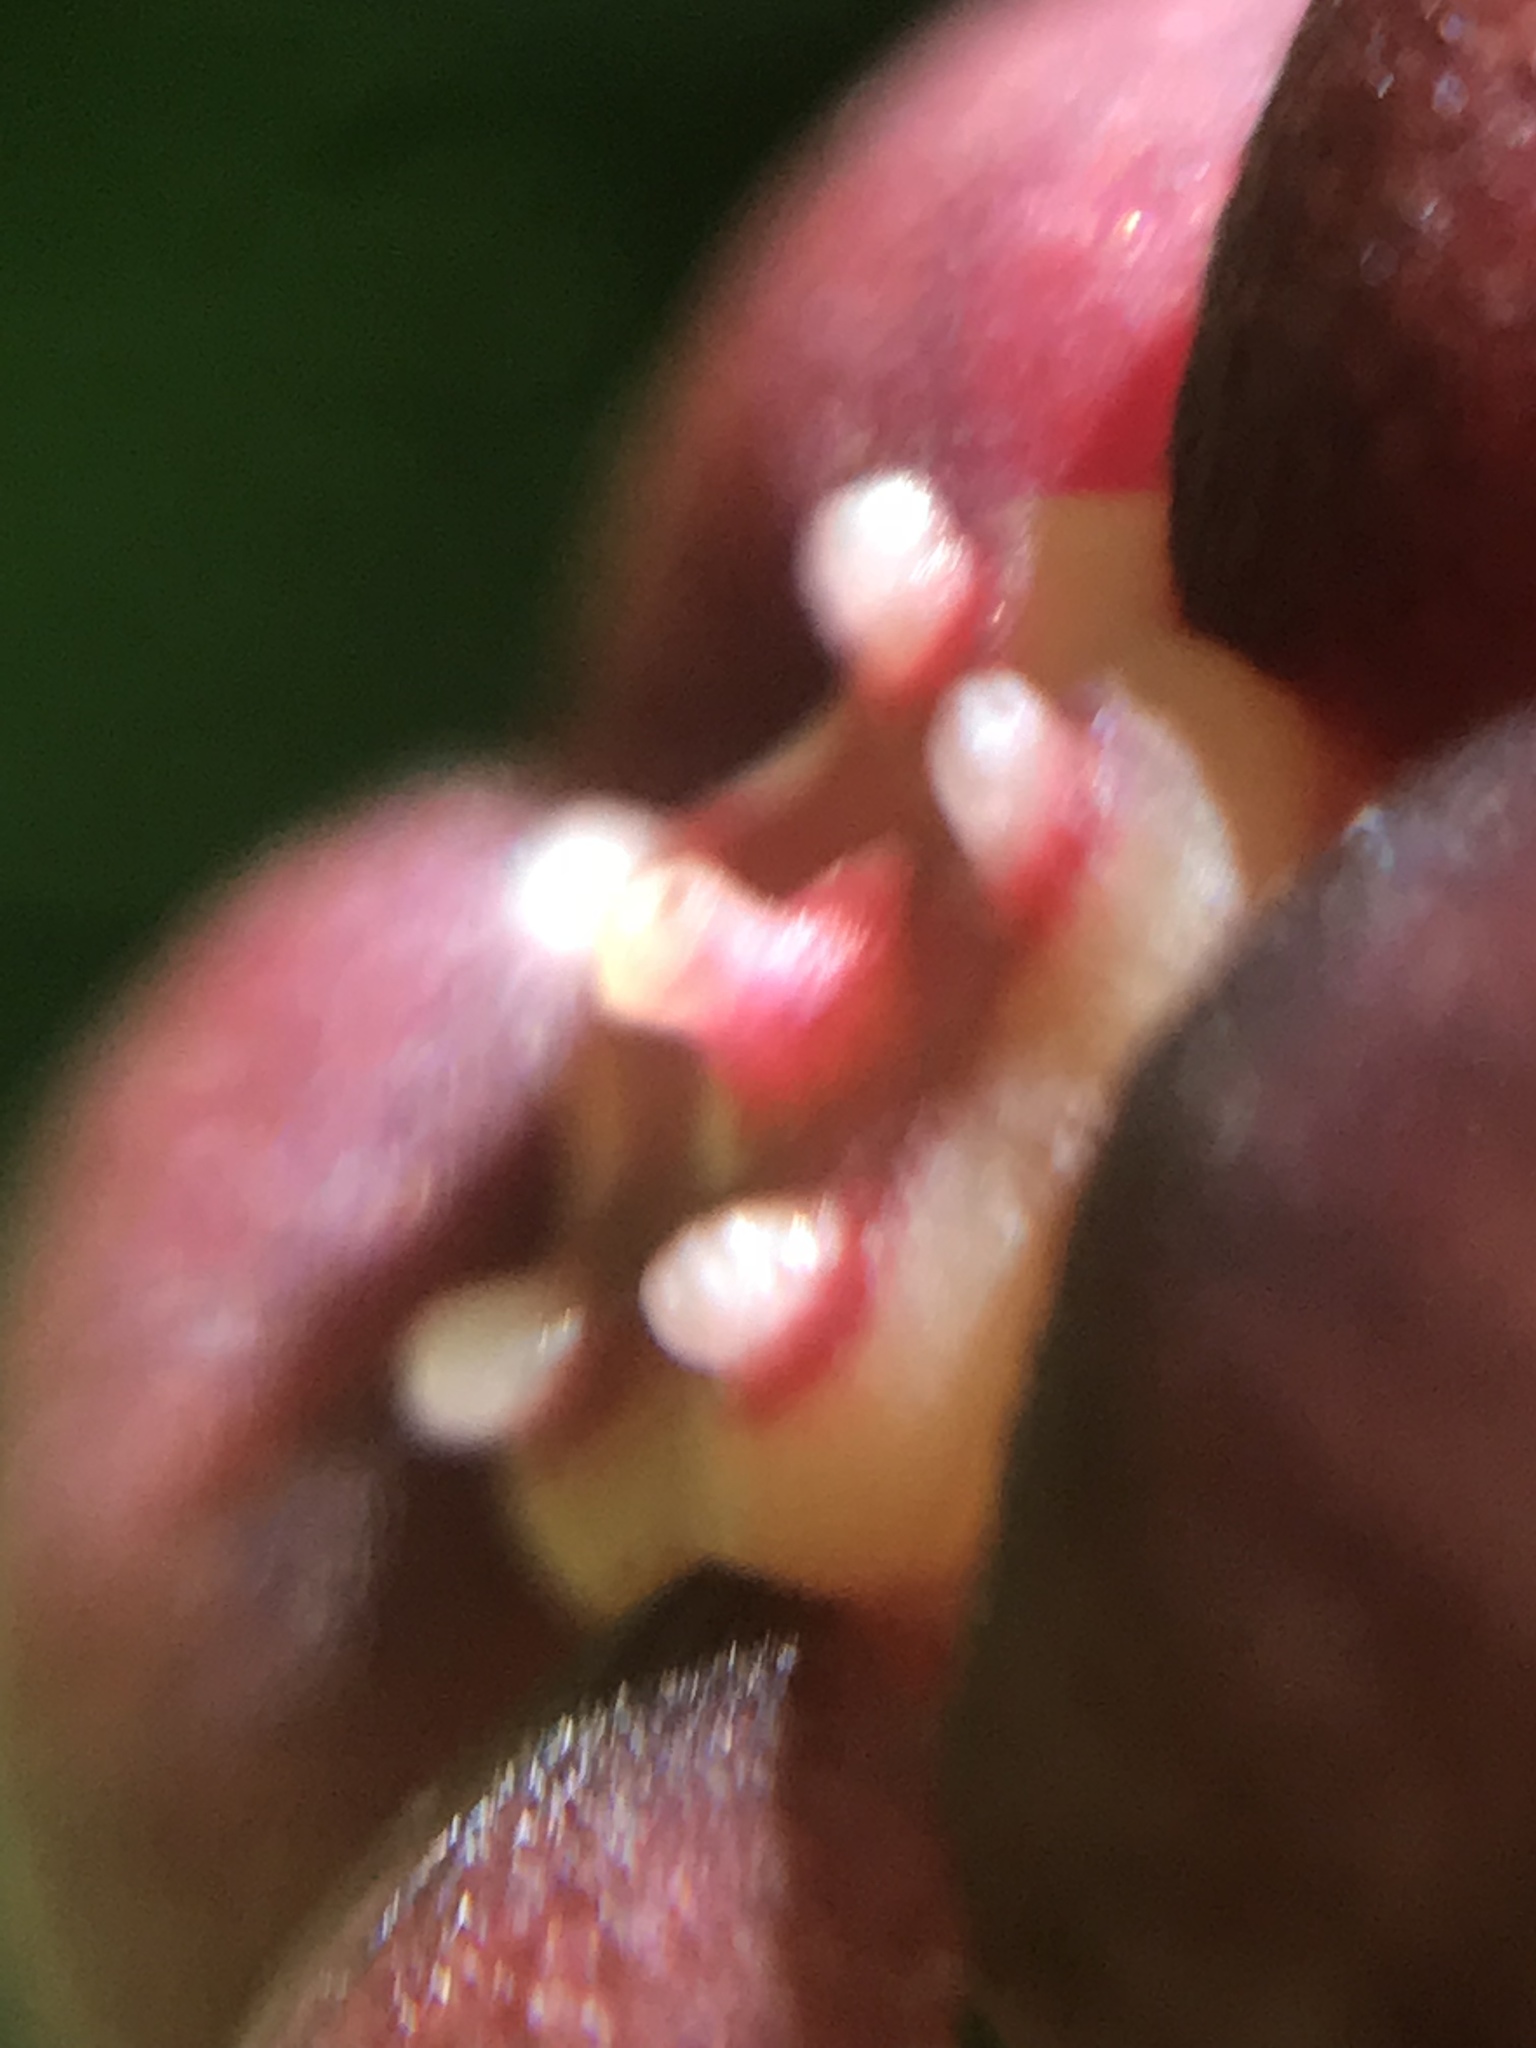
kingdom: Plantae
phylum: Tracheophyta
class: Magnoliopsida
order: Celastrales
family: Celastraceae
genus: Euonymus
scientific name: Euonymus occidentalis
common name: Western burningbush
